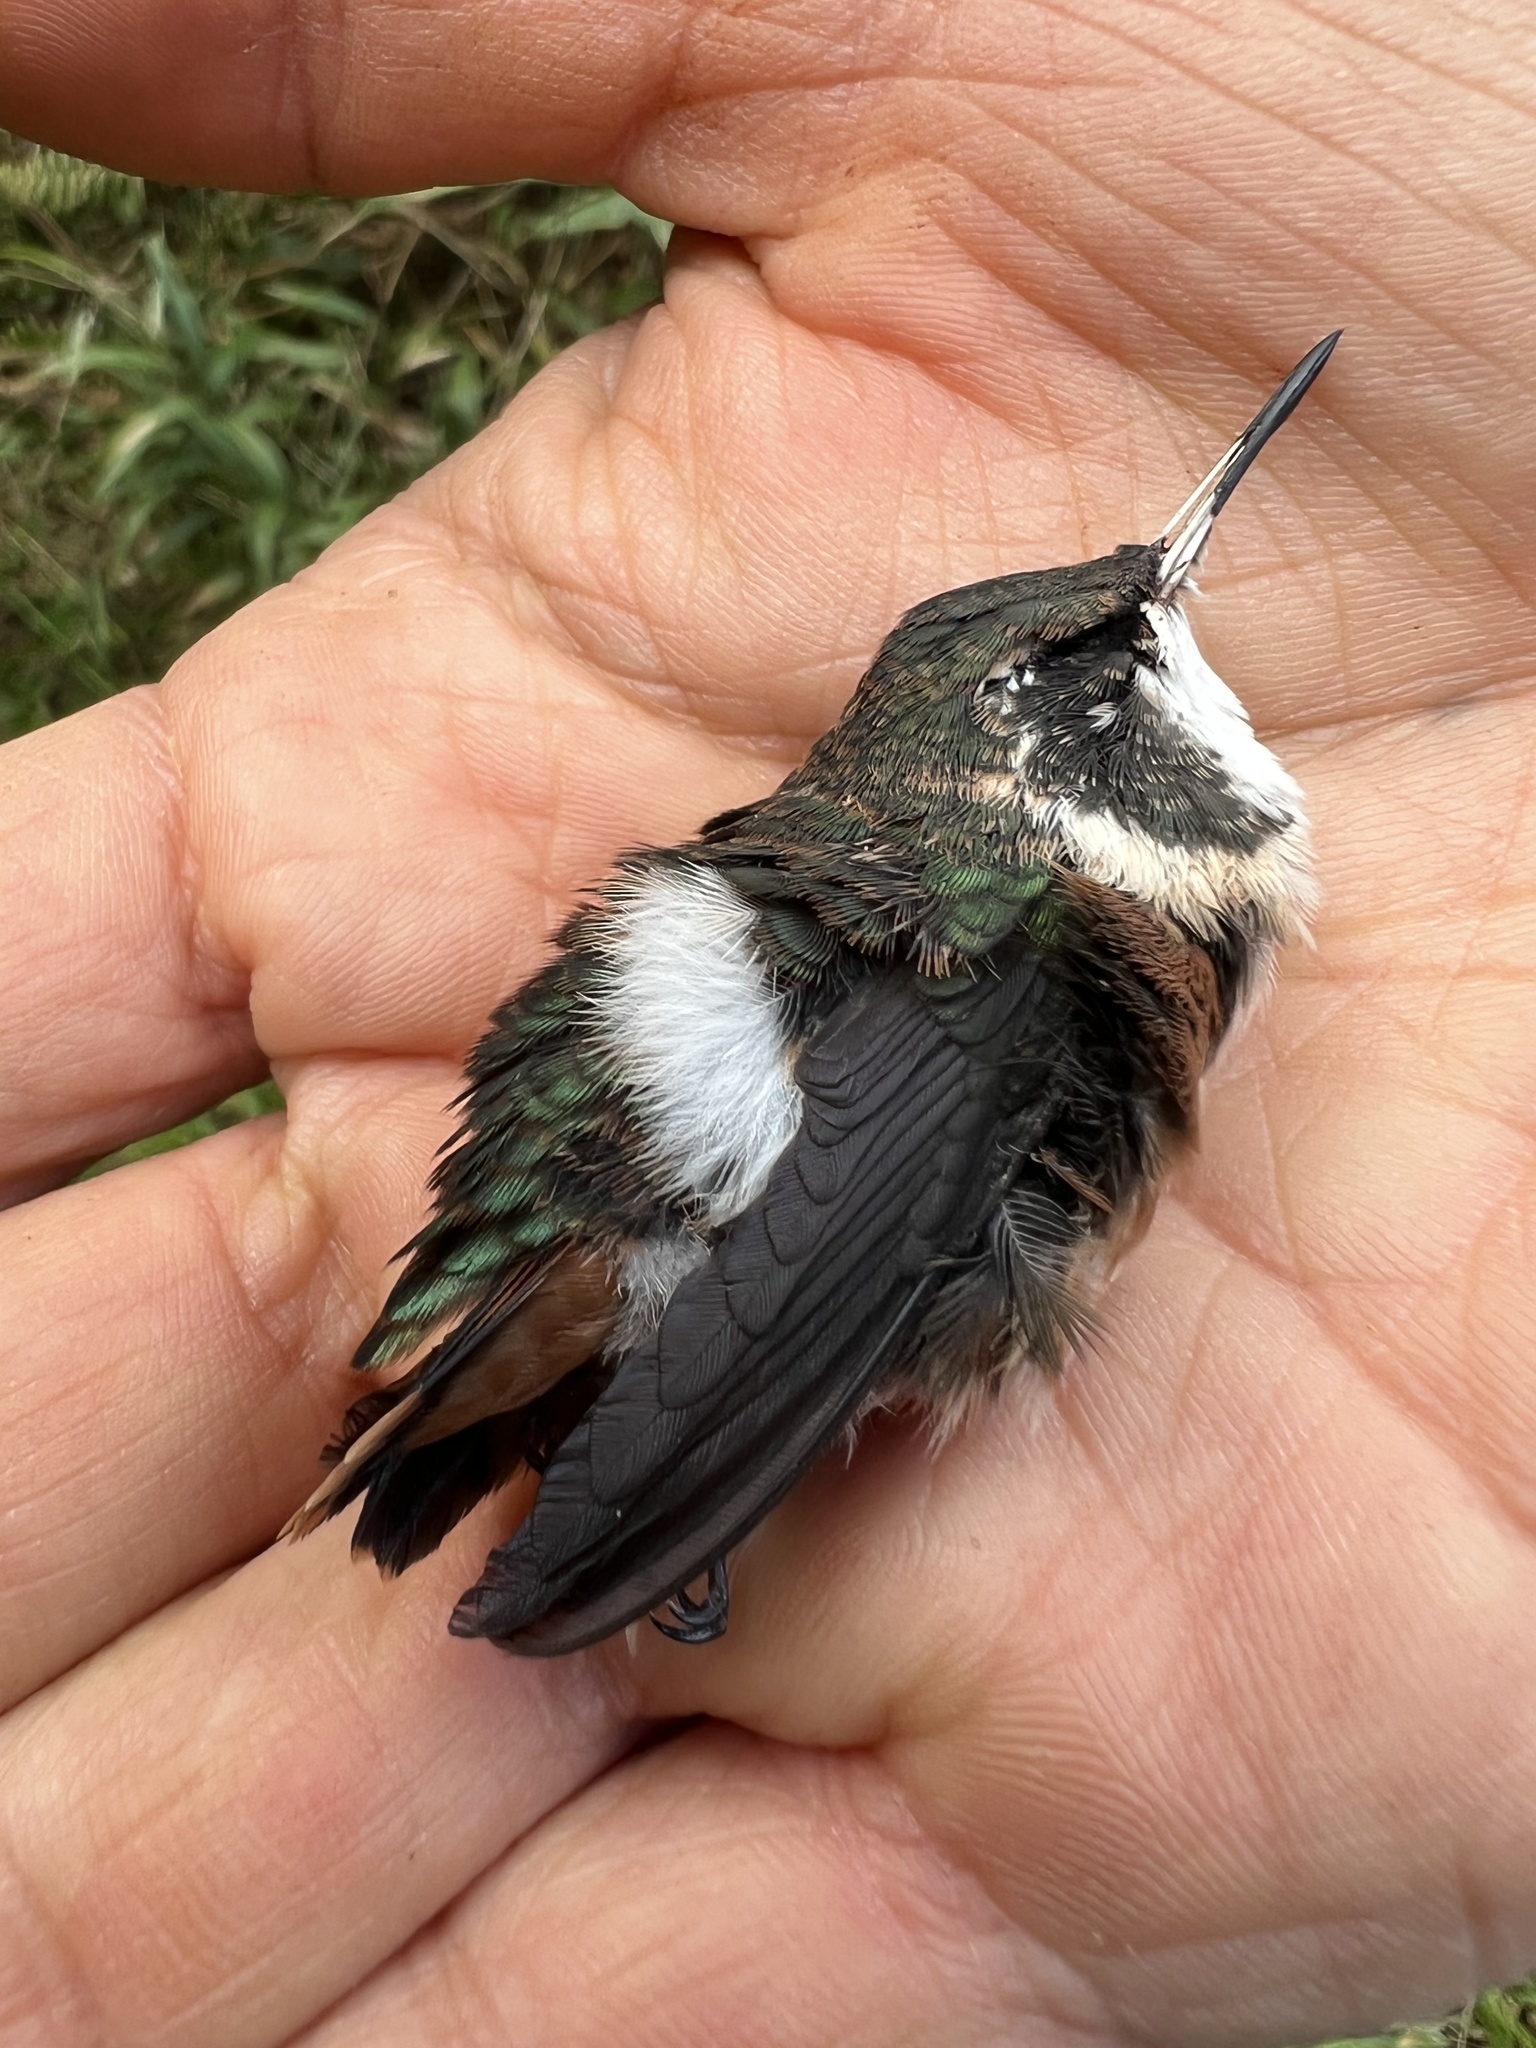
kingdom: Animalia
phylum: Chordata
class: Aves
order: Apodiformes
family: Trochilidae
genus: Chaetocercus
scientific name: Chaetocercus mulsant
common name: White-bellied woodstar
